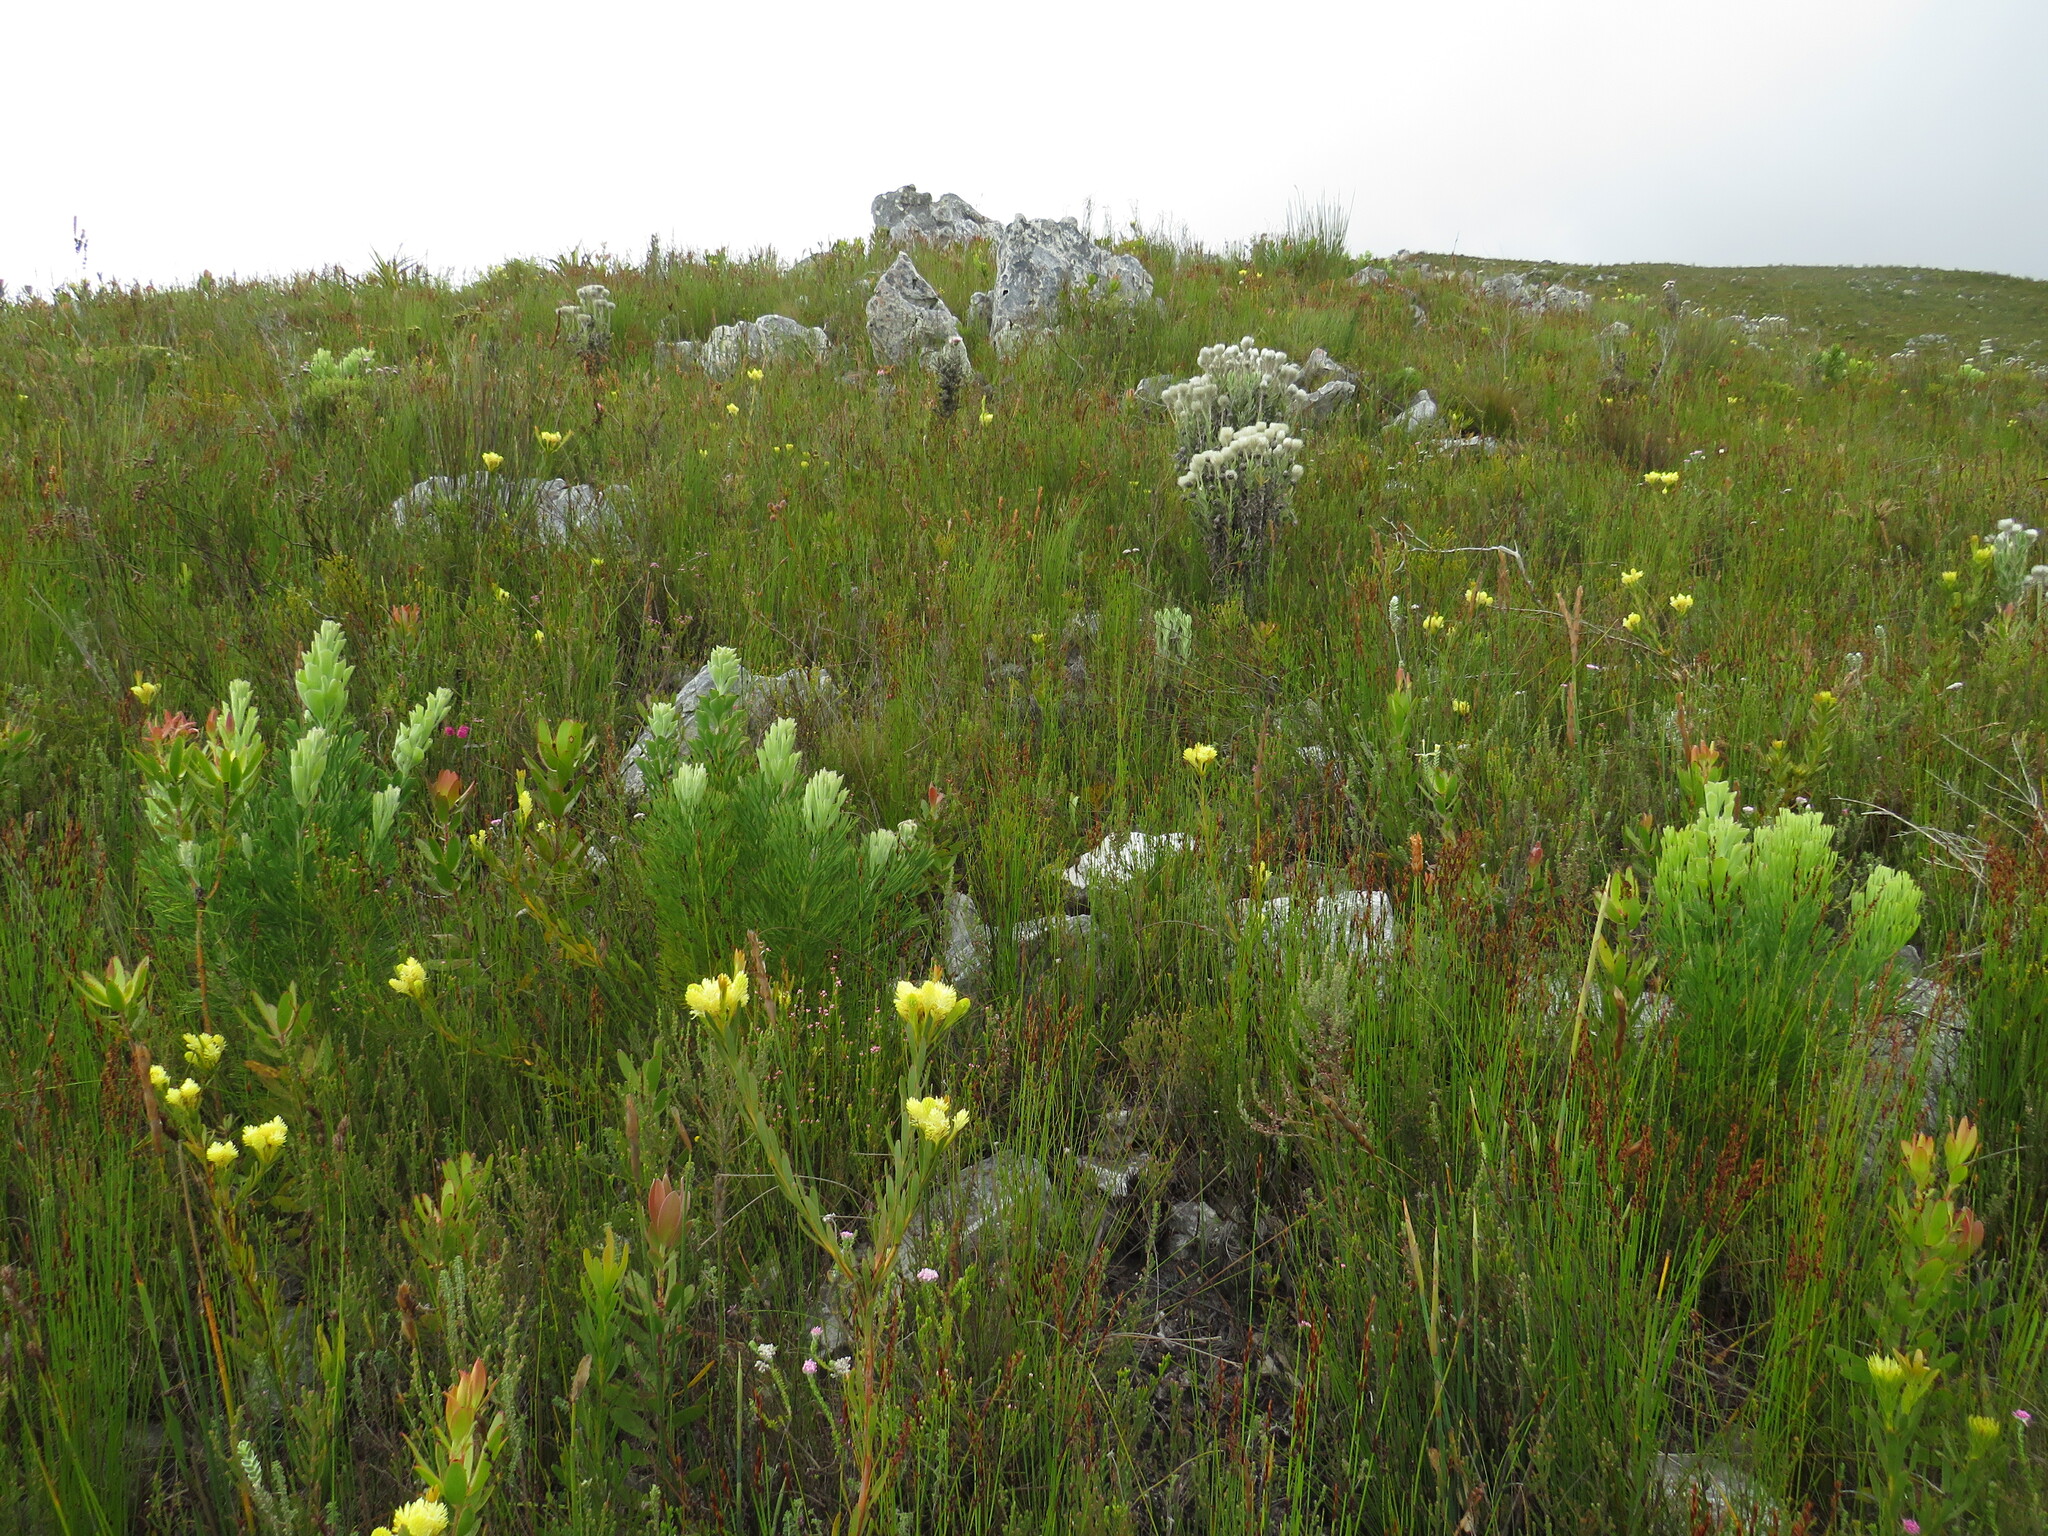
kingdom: Plantae
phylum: Tracheophyta
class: Magnoliopsida
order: Proteales
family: Proteaceae
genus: Paranomus
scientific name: Paranomus sceptrum-gustavianus
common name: King gustav's sceptre
